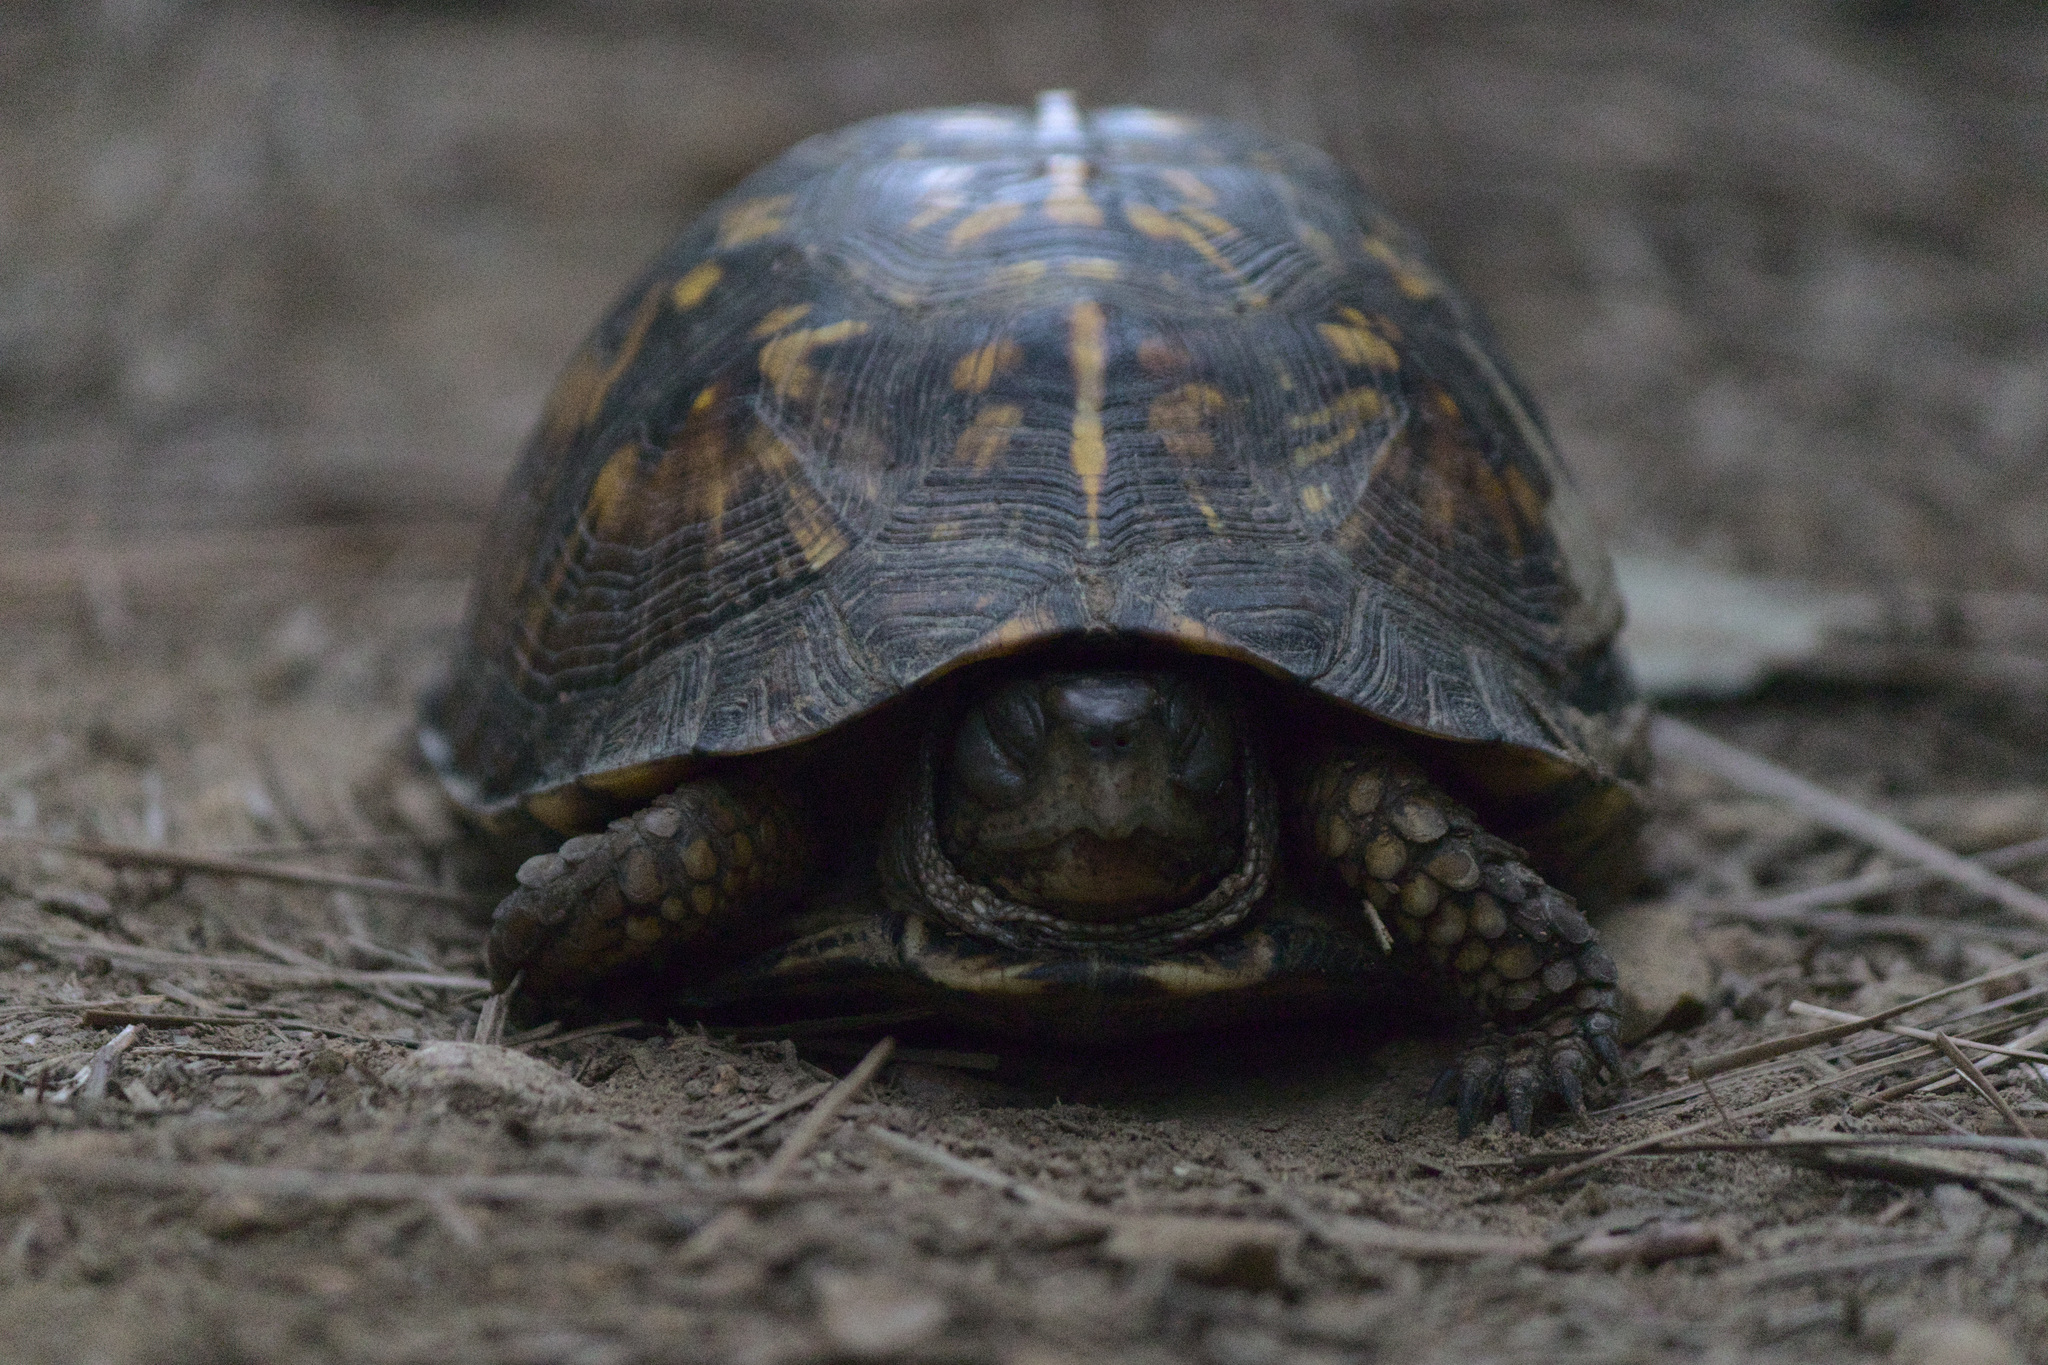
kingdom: Animalia
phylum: Chordata
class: Testudines
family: Emydidae
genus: Terrapene
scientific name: Terrapene carolina
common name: Common box turtle
